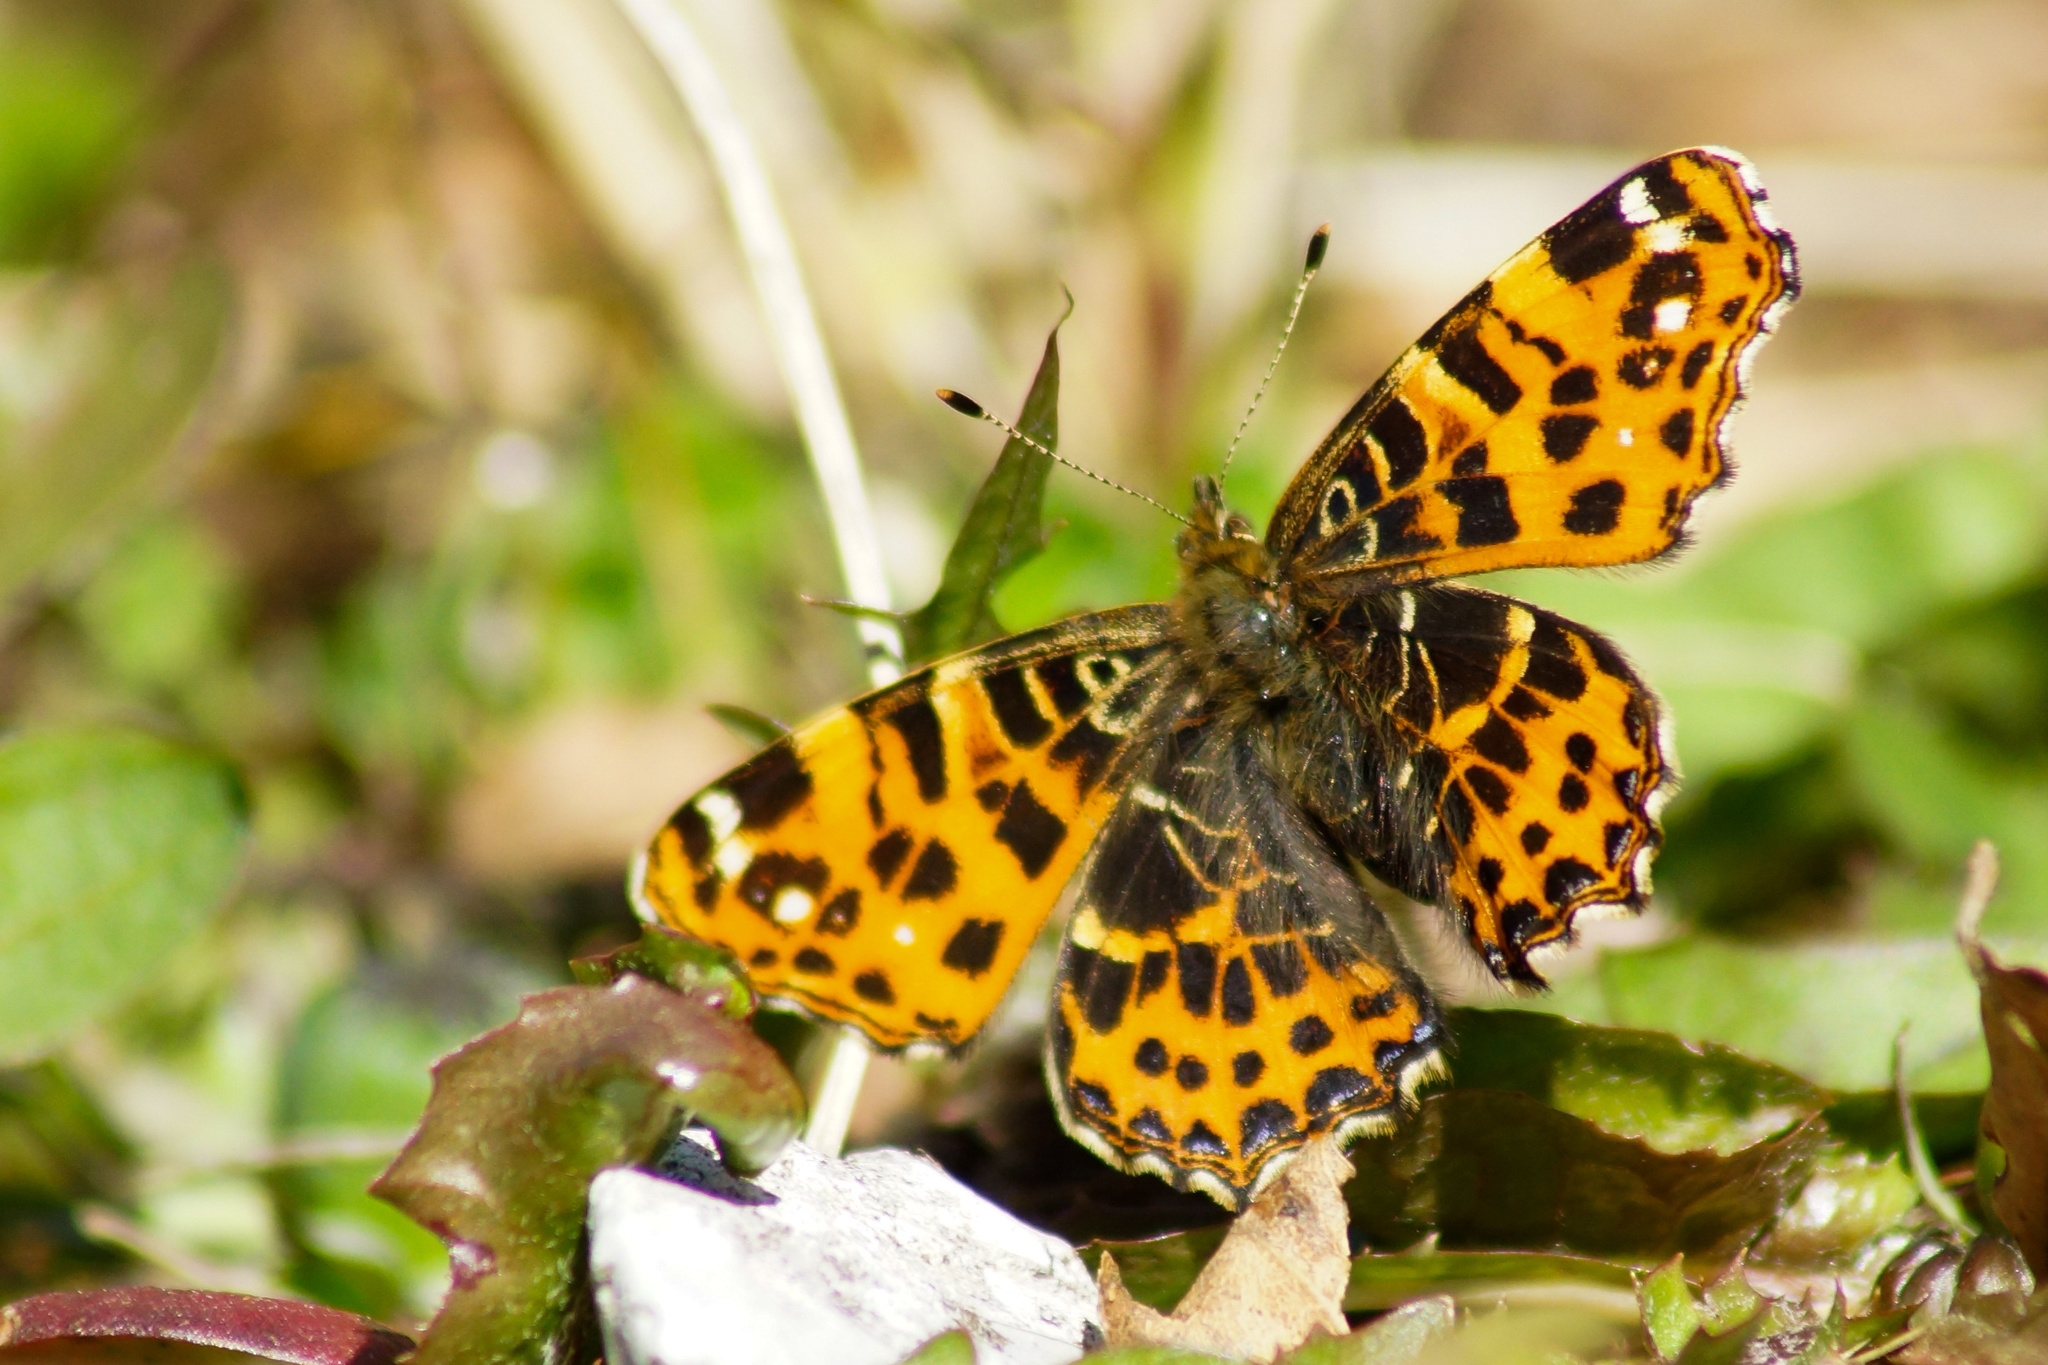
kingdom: Animalia
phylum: Arthropoda
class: Insecta
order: Lepidoptera
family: Nymphalidae
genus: Araschnia
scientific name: Araschnia levana
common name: Map butterfly
